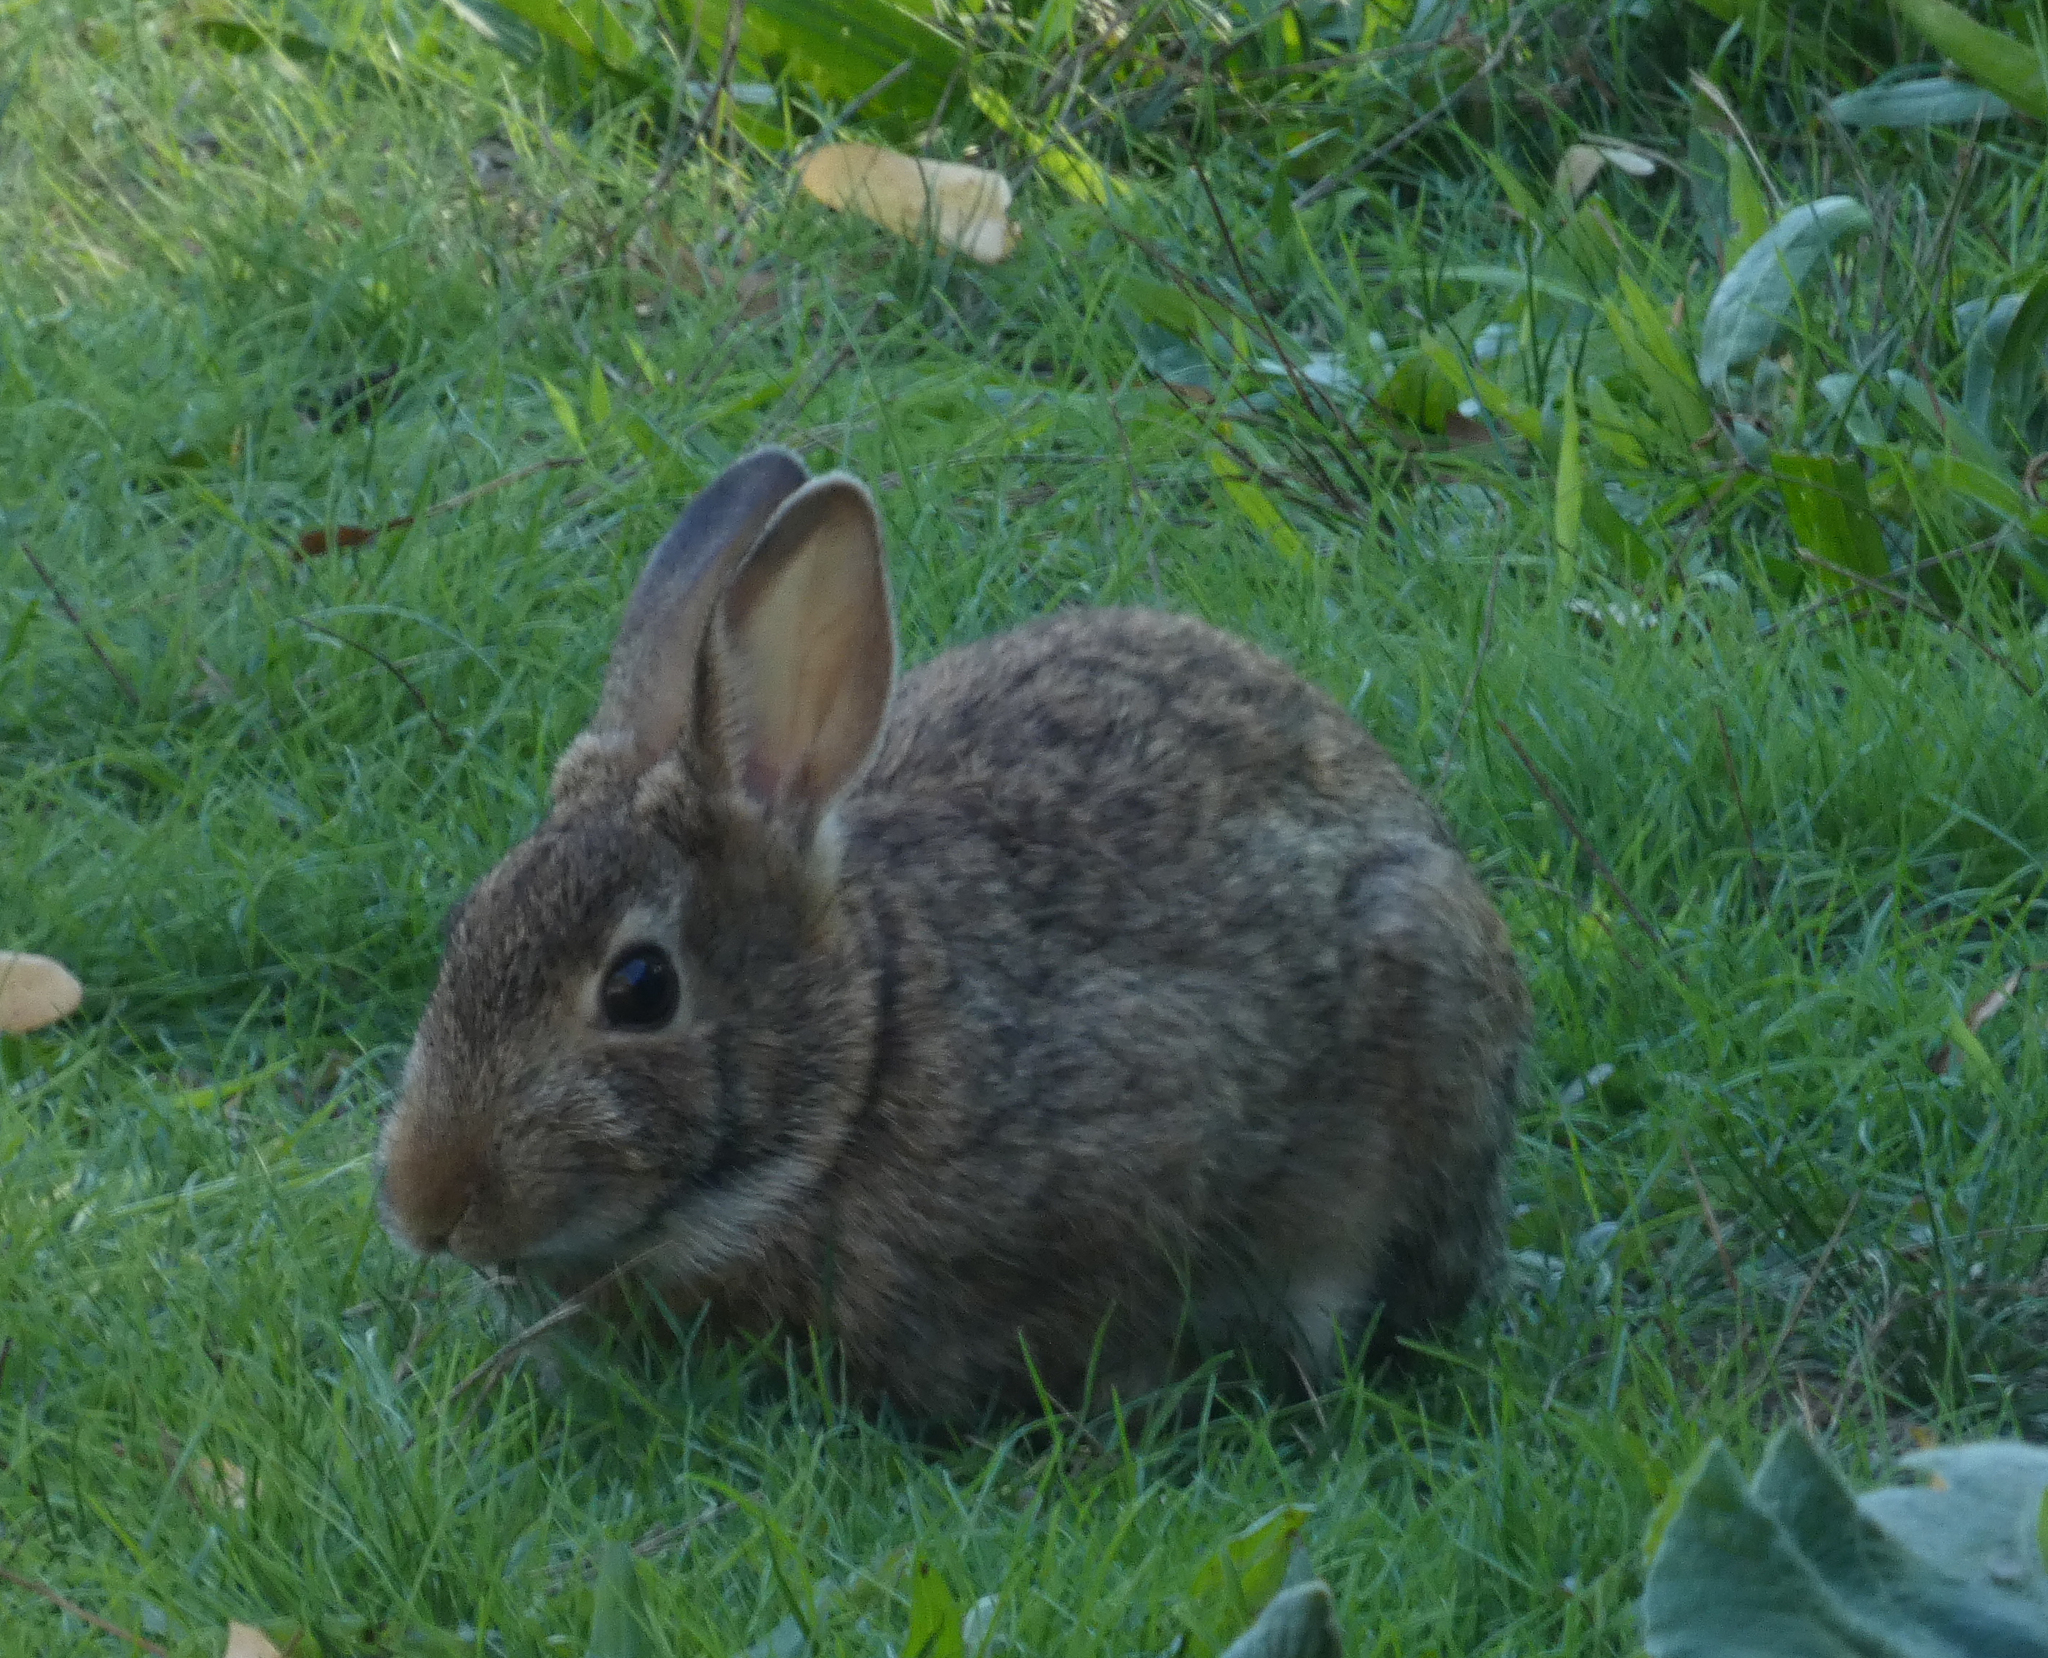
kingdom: Animalia
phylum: Chordata
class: Mammalia
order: Lagomorpha
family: Leporidae
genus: Sylvilagus
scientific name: Sylvilagus floridanus
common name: Eastern cottontail
